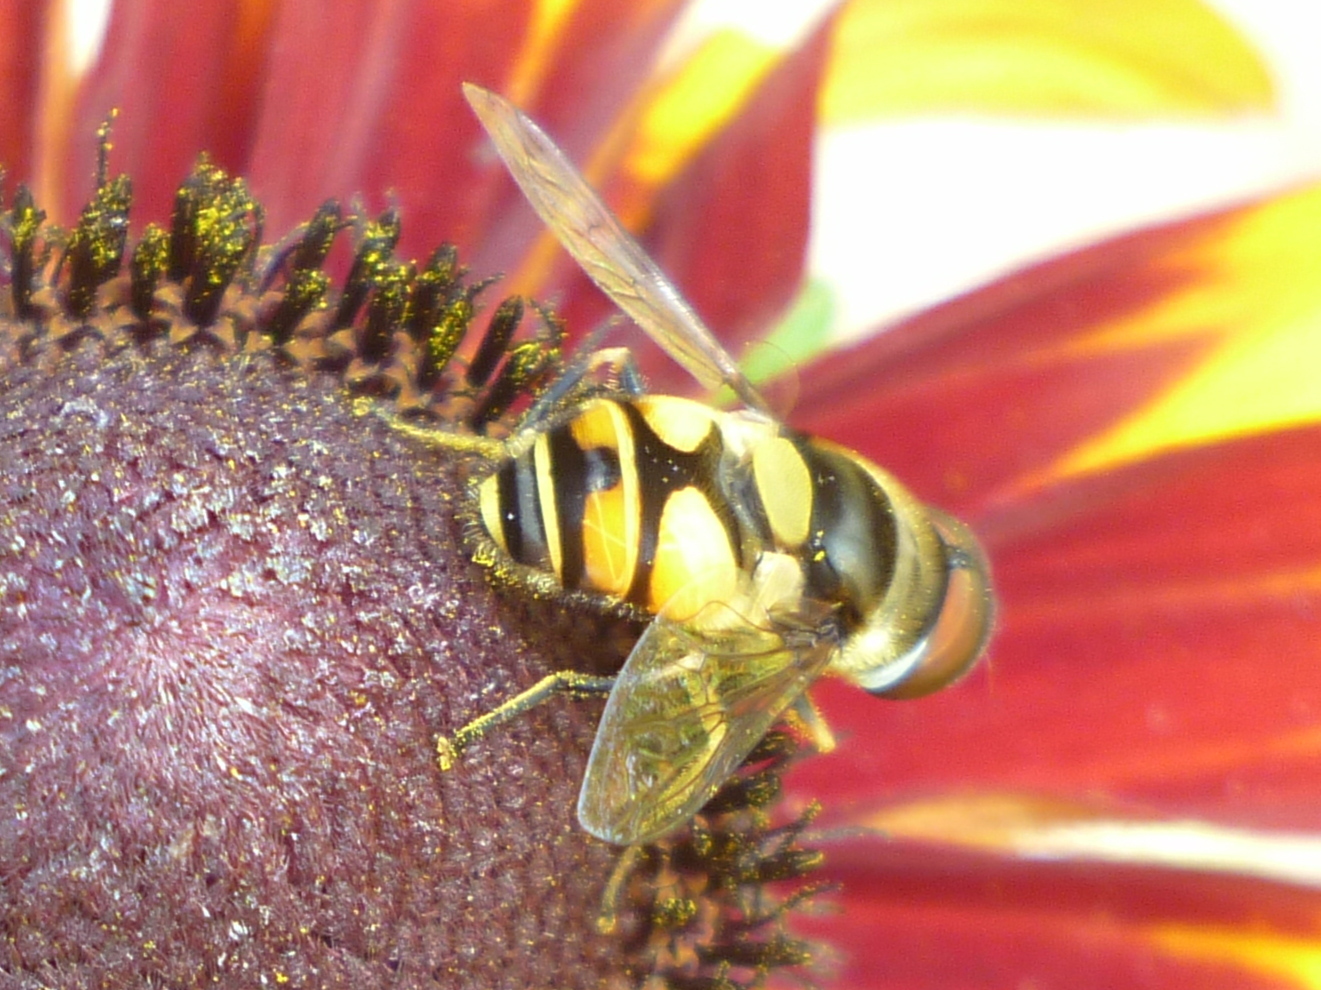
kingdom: Animalia
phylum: Arthropoda
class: Insecta
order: Diptera
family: Syrphidae
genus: Eristalis
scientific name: Eristalis transversa
